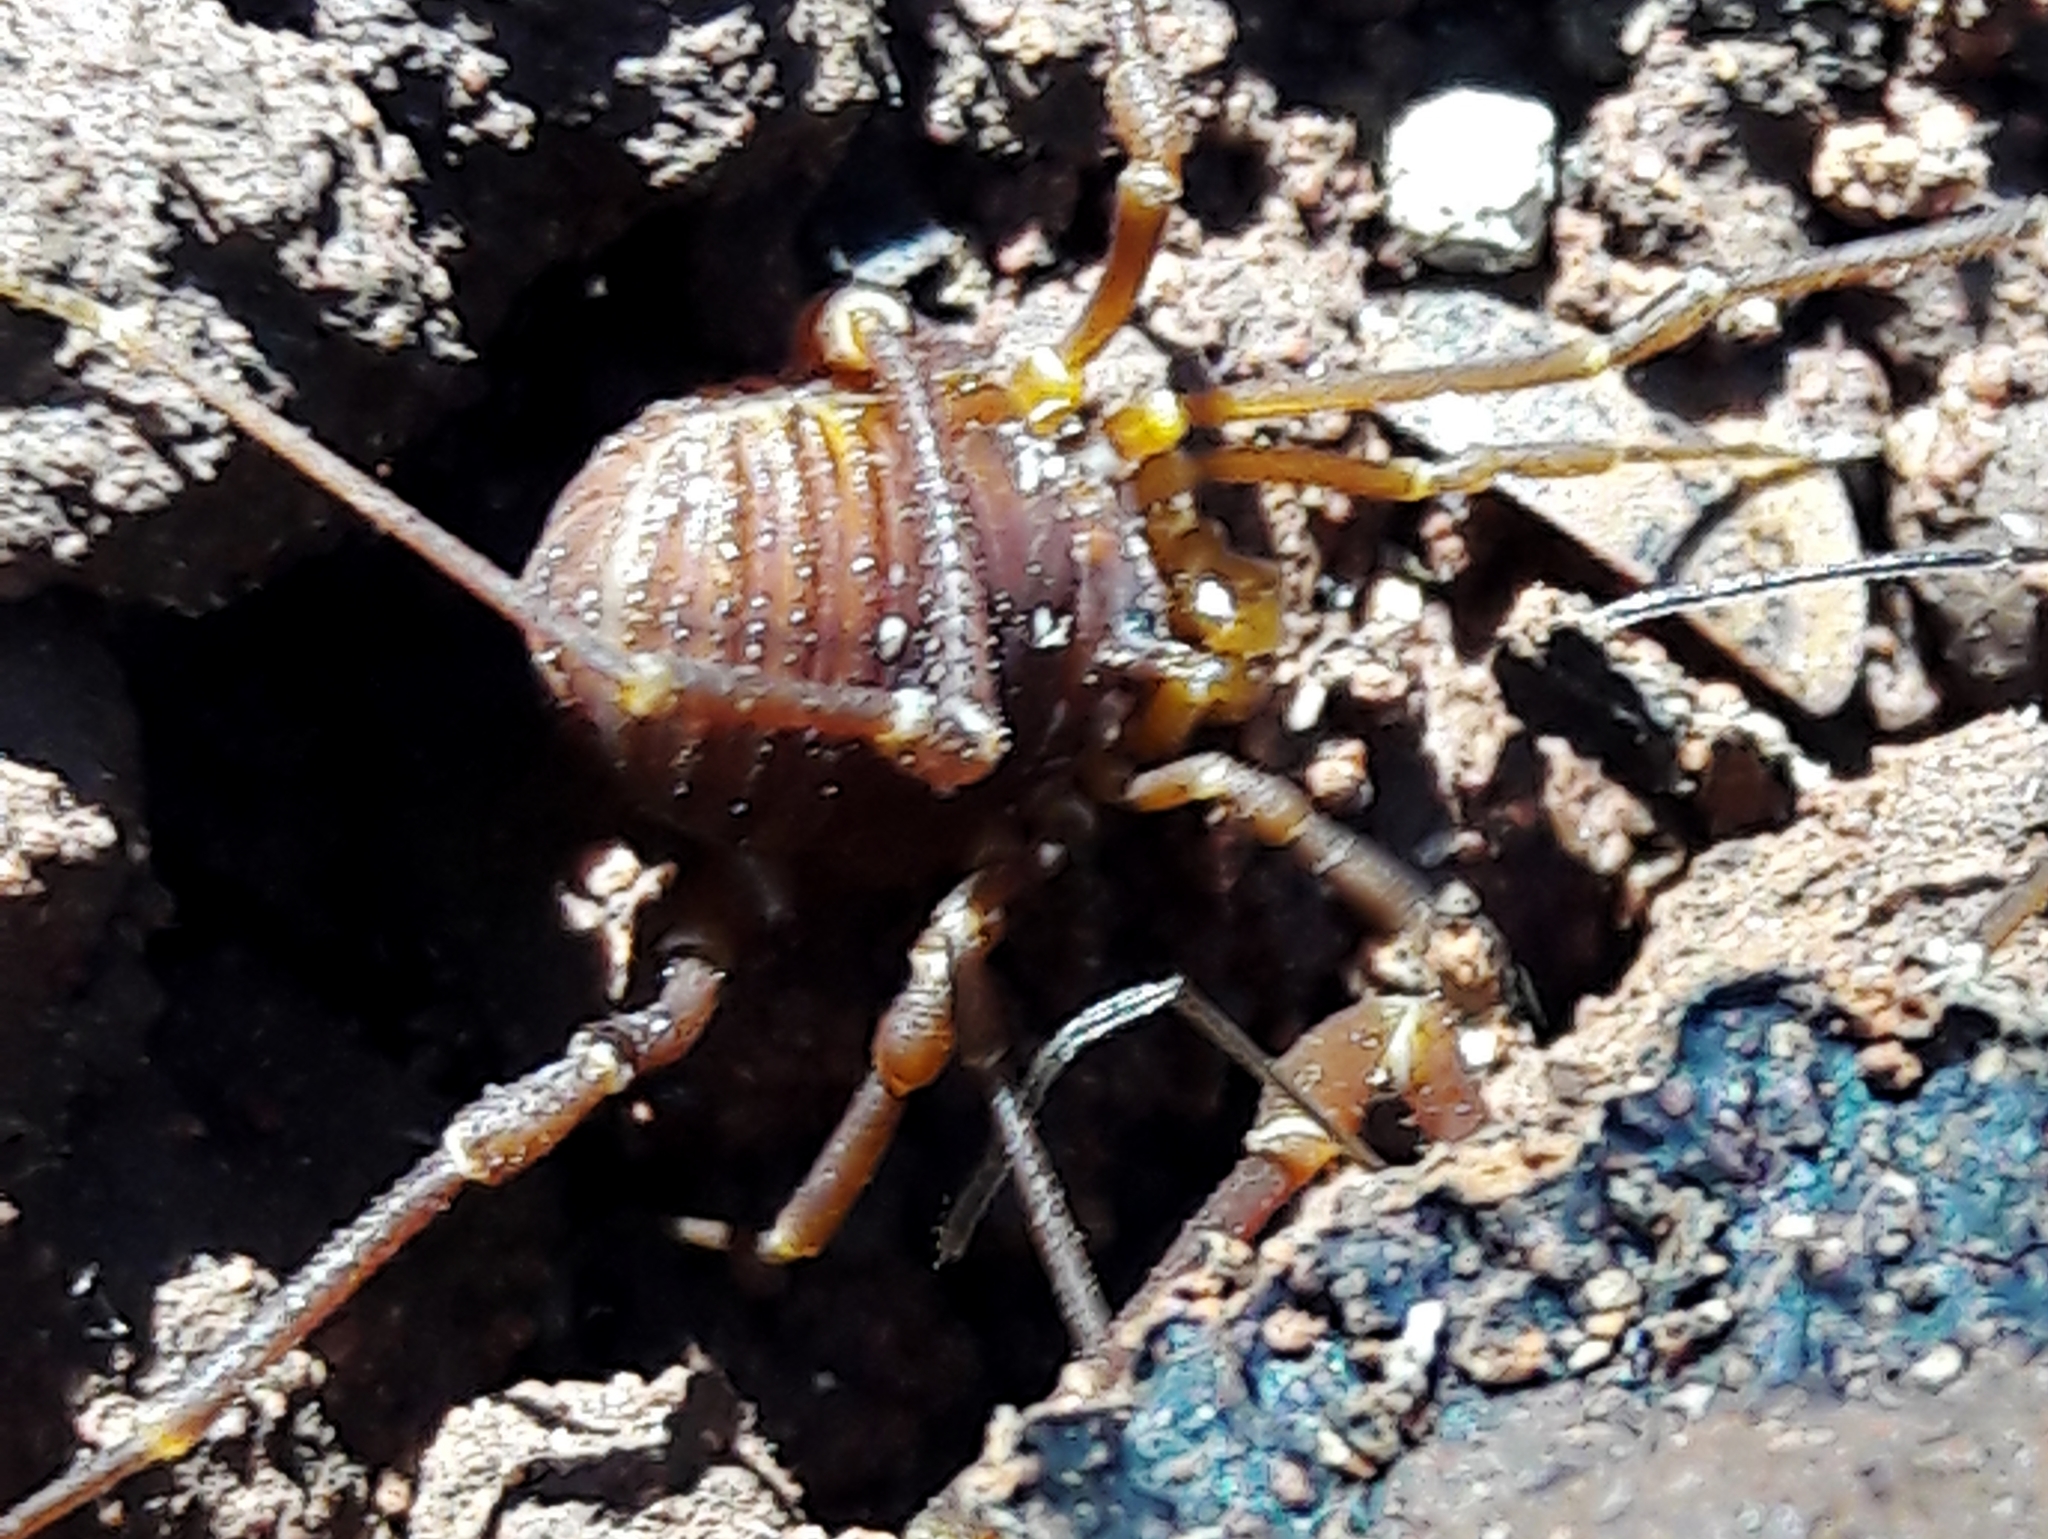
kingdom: Animalia
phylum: Arthropoda
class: Arachnida
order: Opiliones
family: Gonyleptidae
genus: Krateromaspis
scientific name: Krateromaspis dilatata
